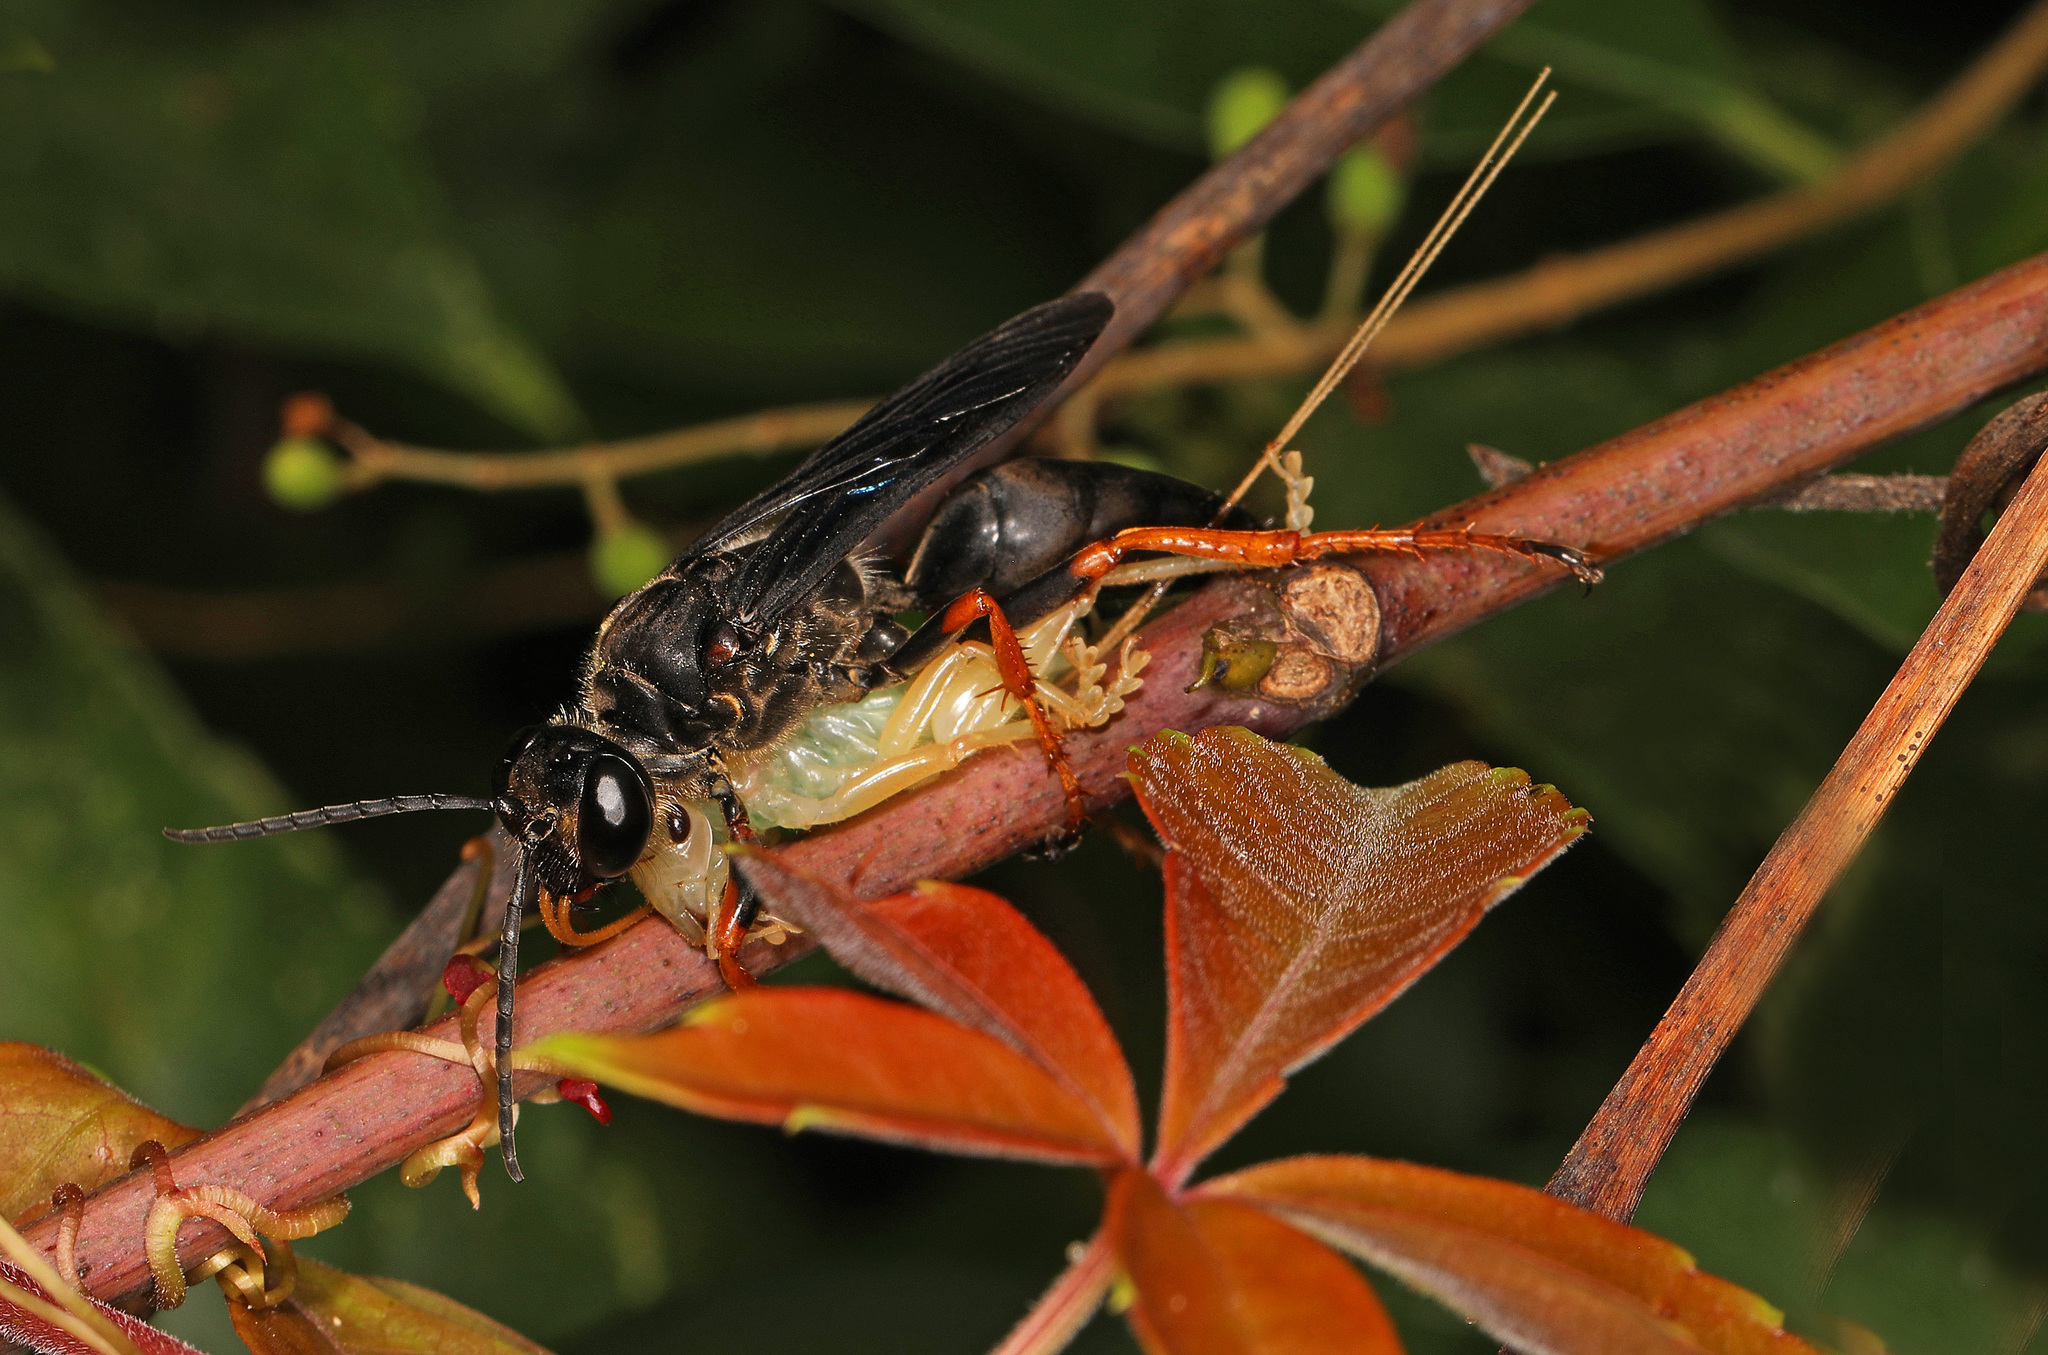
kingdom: Animalia
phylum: Arthropoda
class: Insecta
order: Hymenoptera
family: Sphecidae
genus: Sphex
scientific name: Sphex nudus
